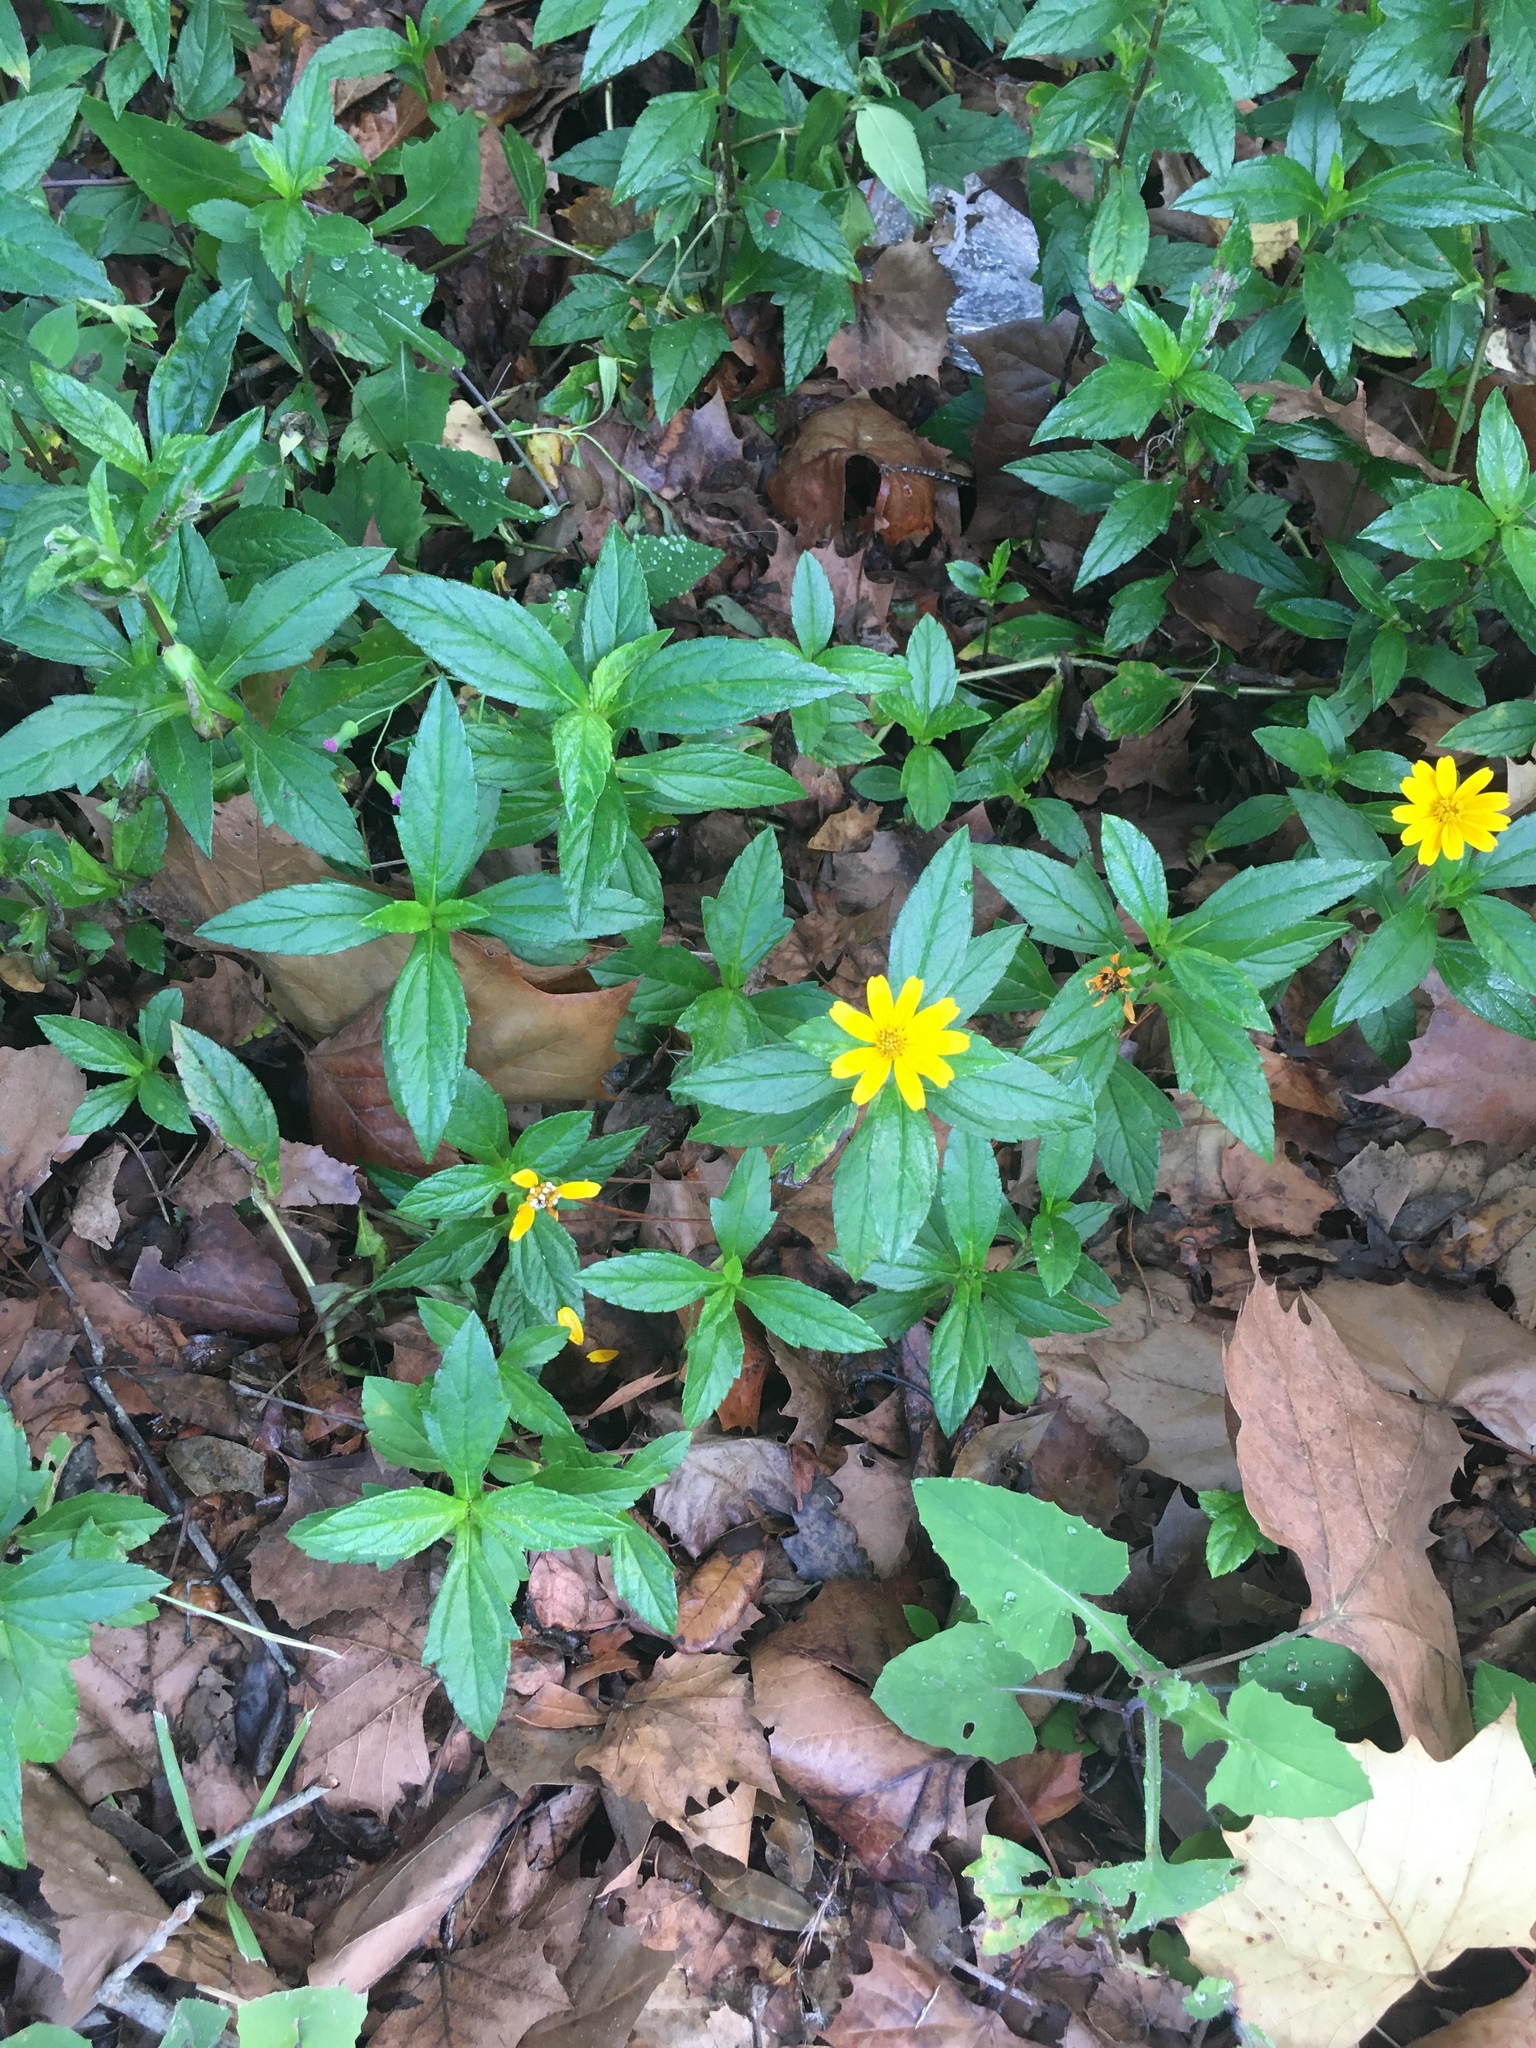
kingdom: Plantae
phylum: Tracheophyta
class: Magnoliopsida
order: Asterales
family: Asteraceae
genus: Sphagneticola
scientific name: Sphagneticola trilobata
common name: Bay biscayne creeping-oxeye
